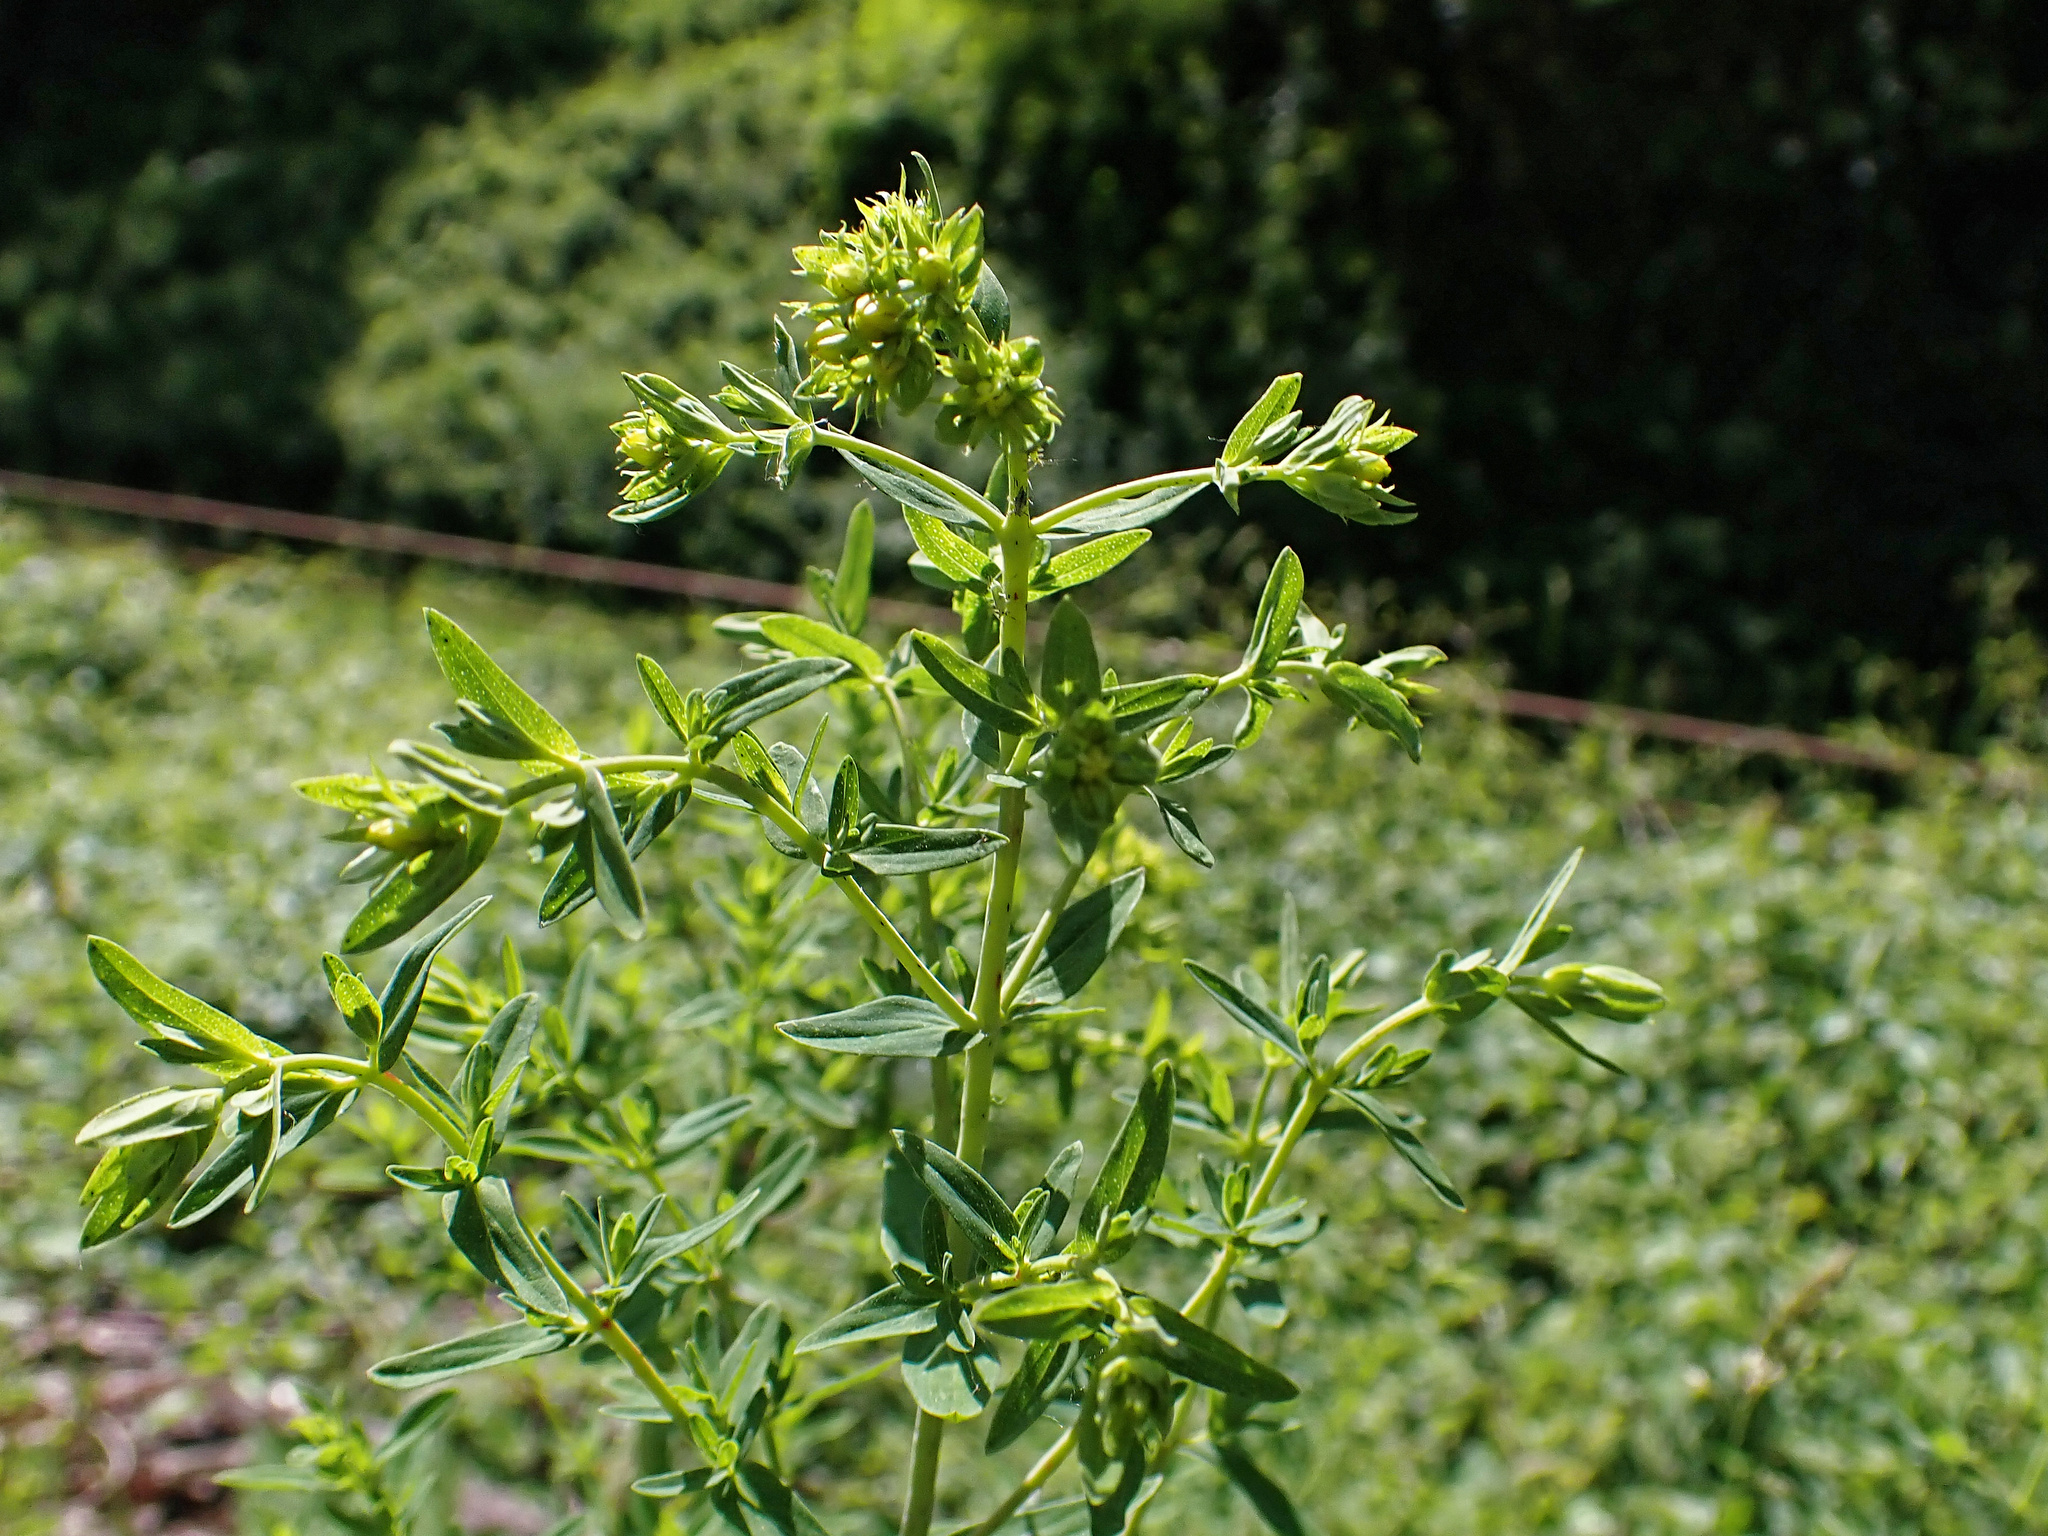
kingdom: Plantae
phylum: Tracheophyta
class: Magnoliopsida
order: Malpighiales
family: Hypericaceae
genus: Hypericum
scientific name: Hypericum perforatum
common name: Common st. johnswort
